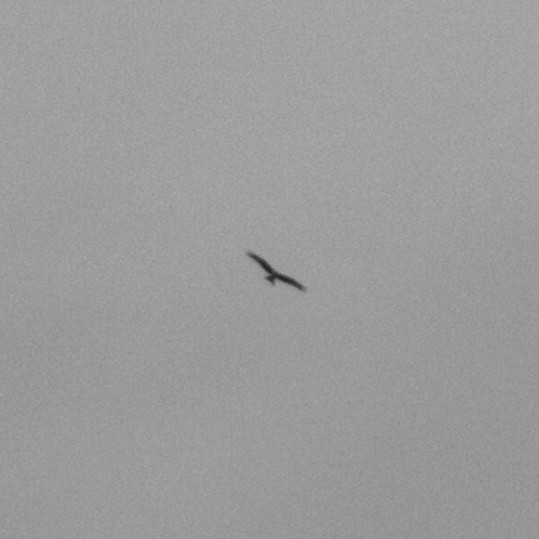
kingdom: Animalia
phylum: Chordata
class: Aves
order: Accipitriformes
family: Accipitridae
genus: Milvus
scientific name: Milvus milvus
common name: Red kite
